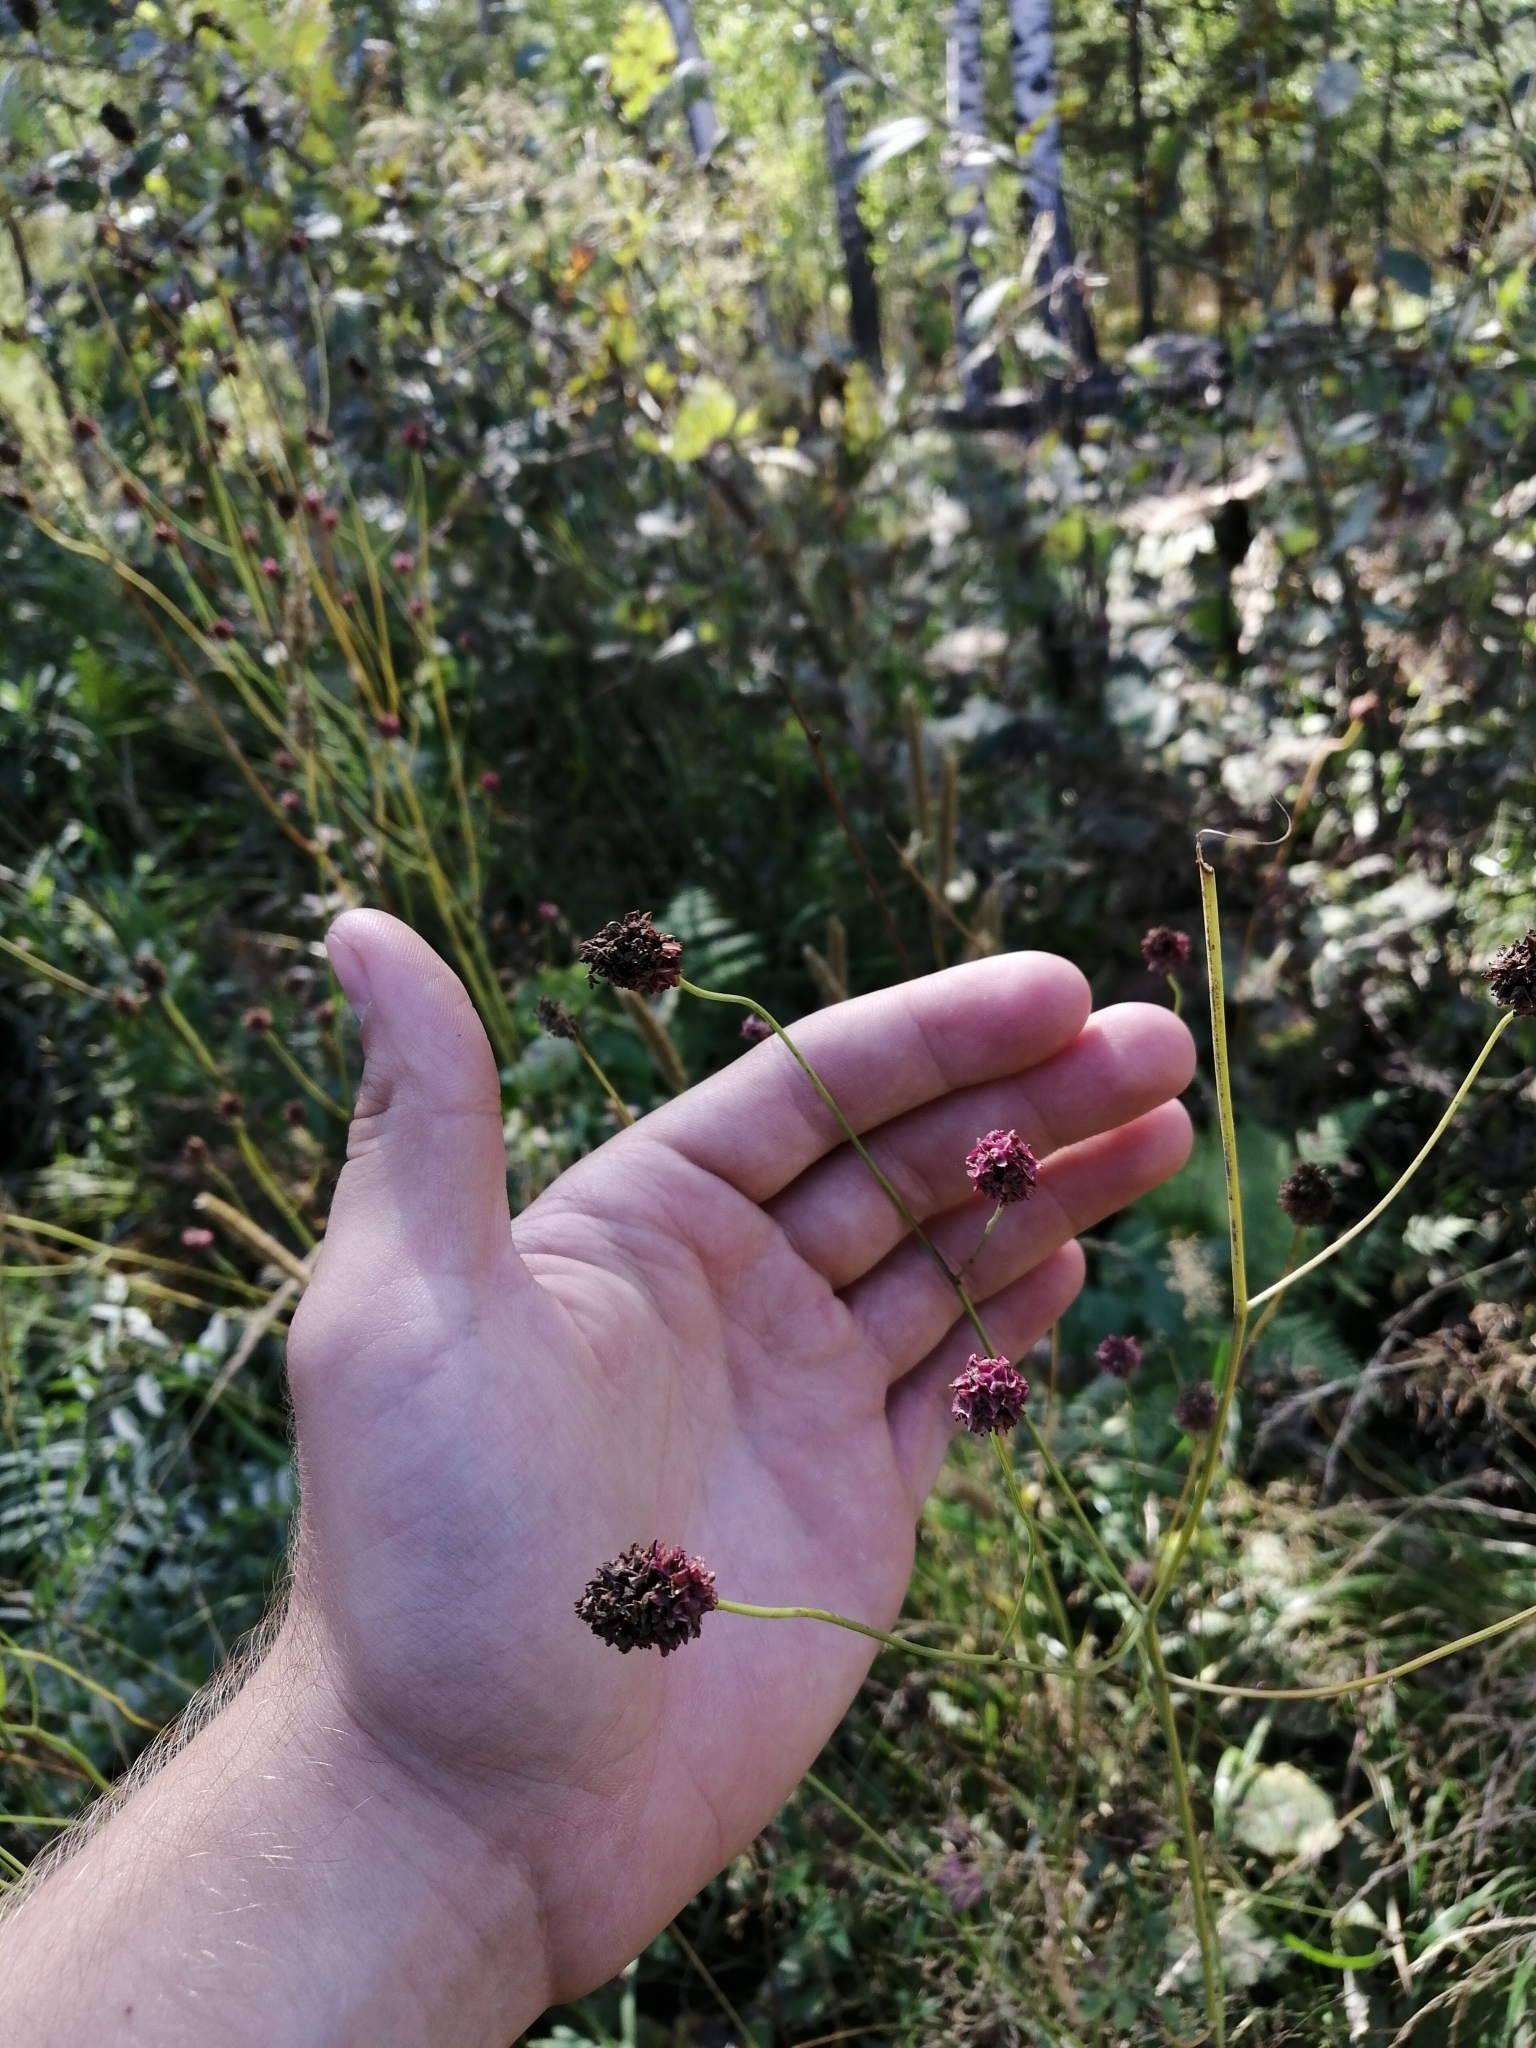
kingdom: Plantae
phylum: Tracheophyta
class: Magnoliopsida
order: Rosales
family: Rosaceae
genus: Sanguisorba
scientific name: Sanguisorba officinalis
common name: Great burnet
